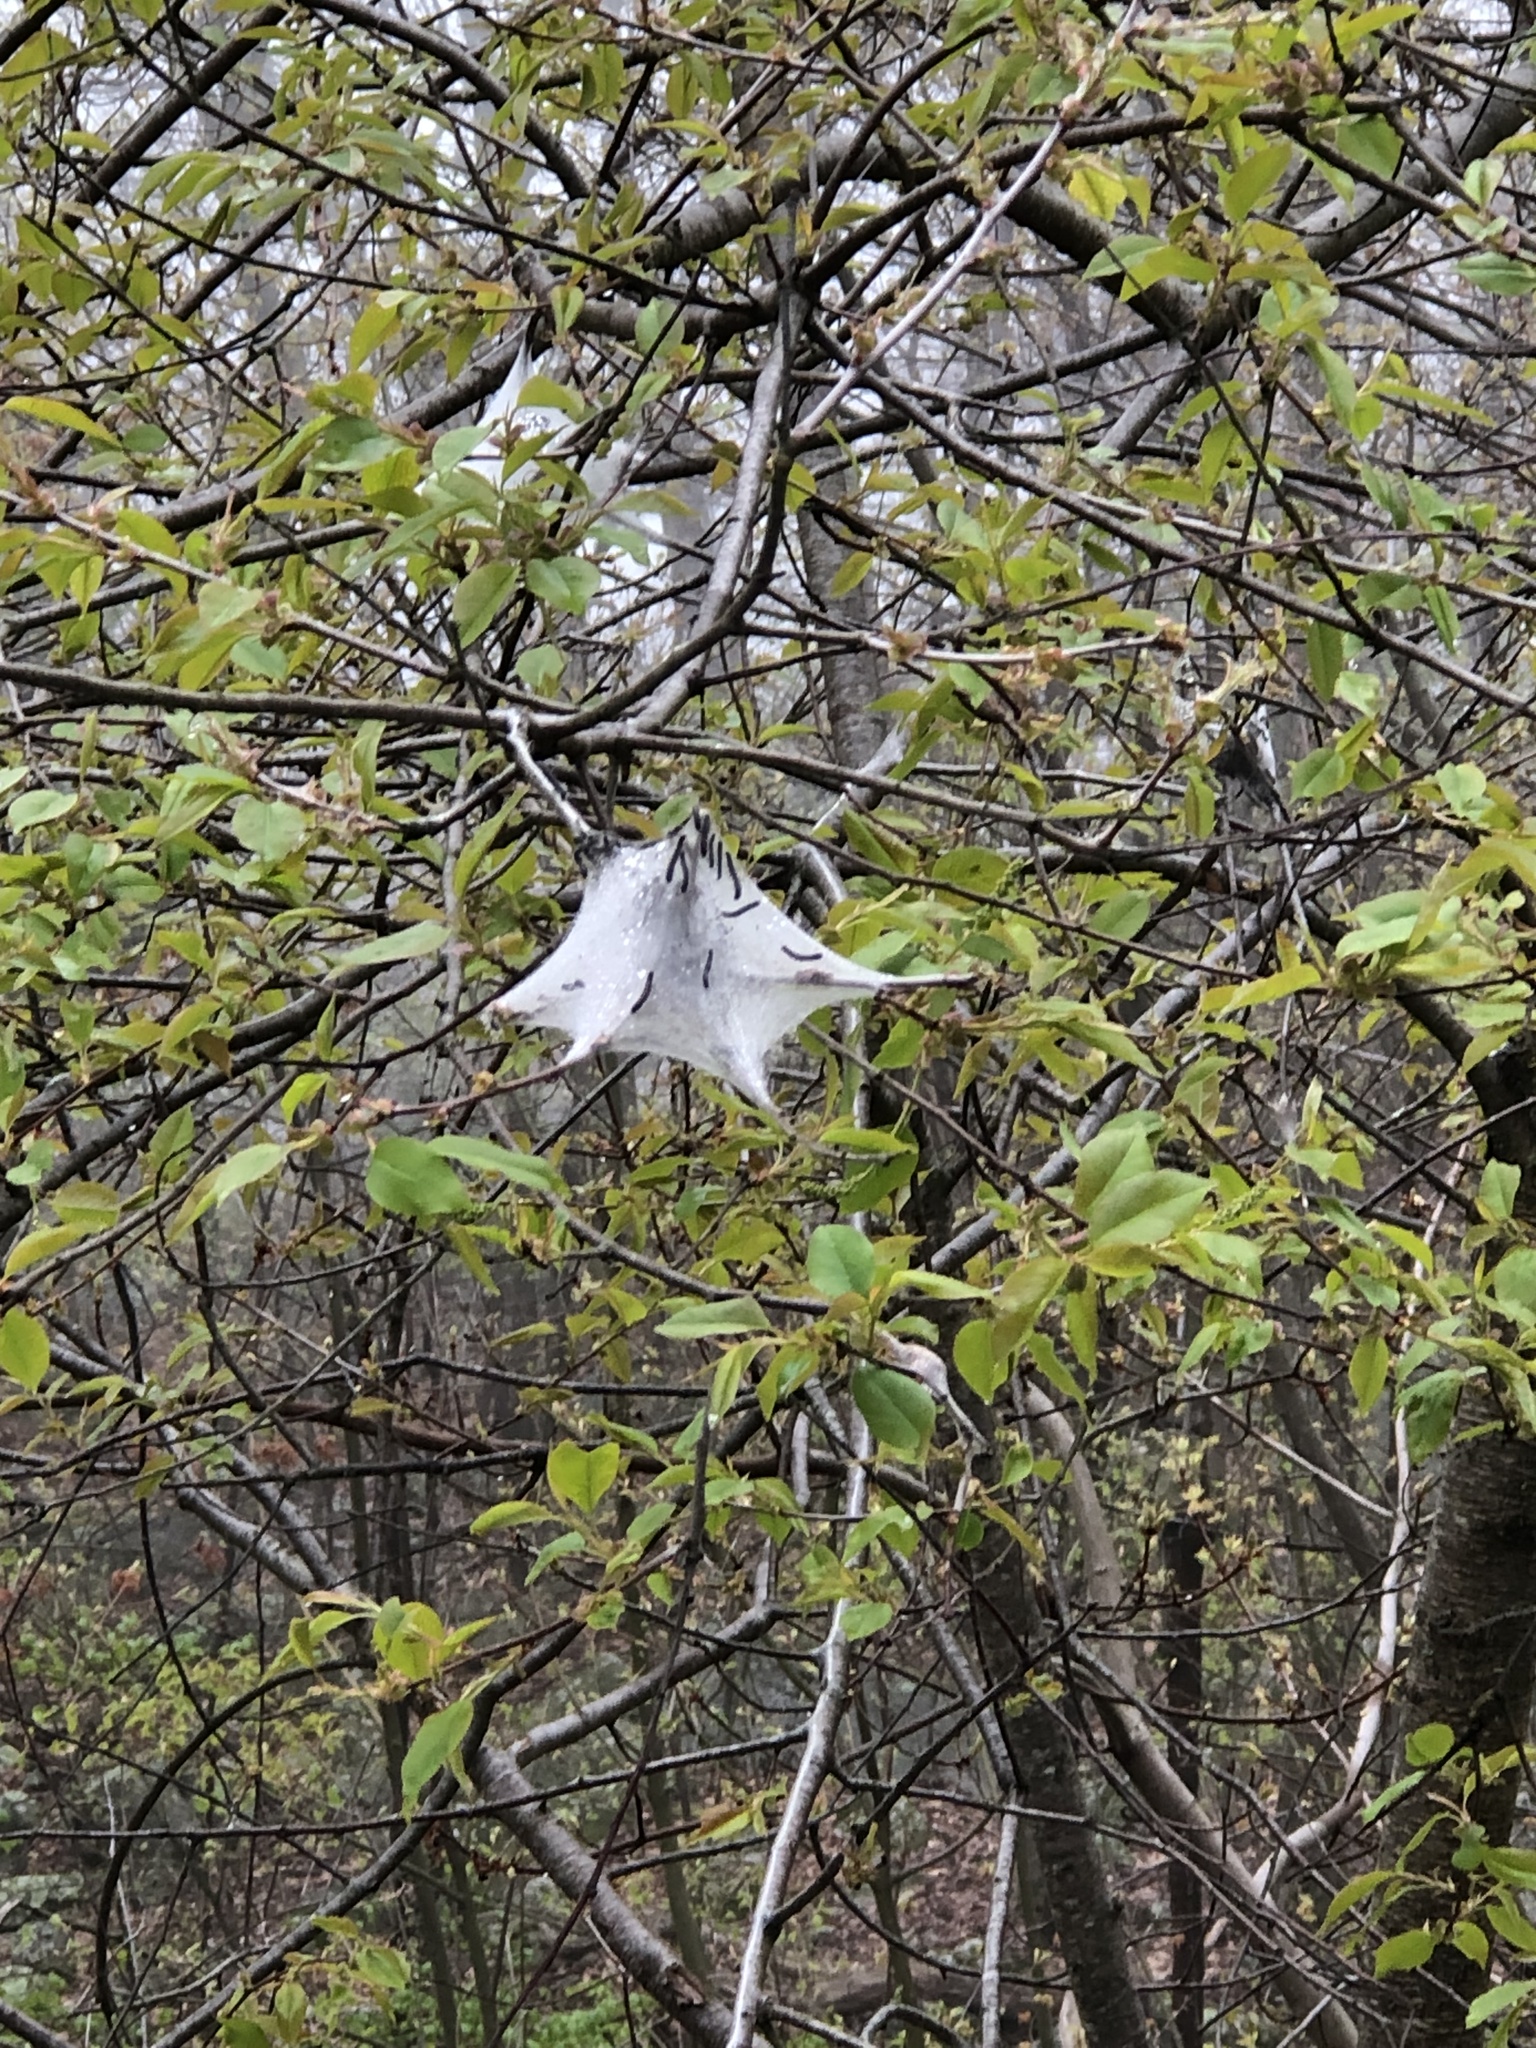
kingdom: Animalia
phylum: Arthropoda
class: Insecta
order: Lepidoptera
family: Lasiocampidae
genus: Malacosoma
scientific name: Malacosoma americana
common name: Eastern tent caterpillar moth
